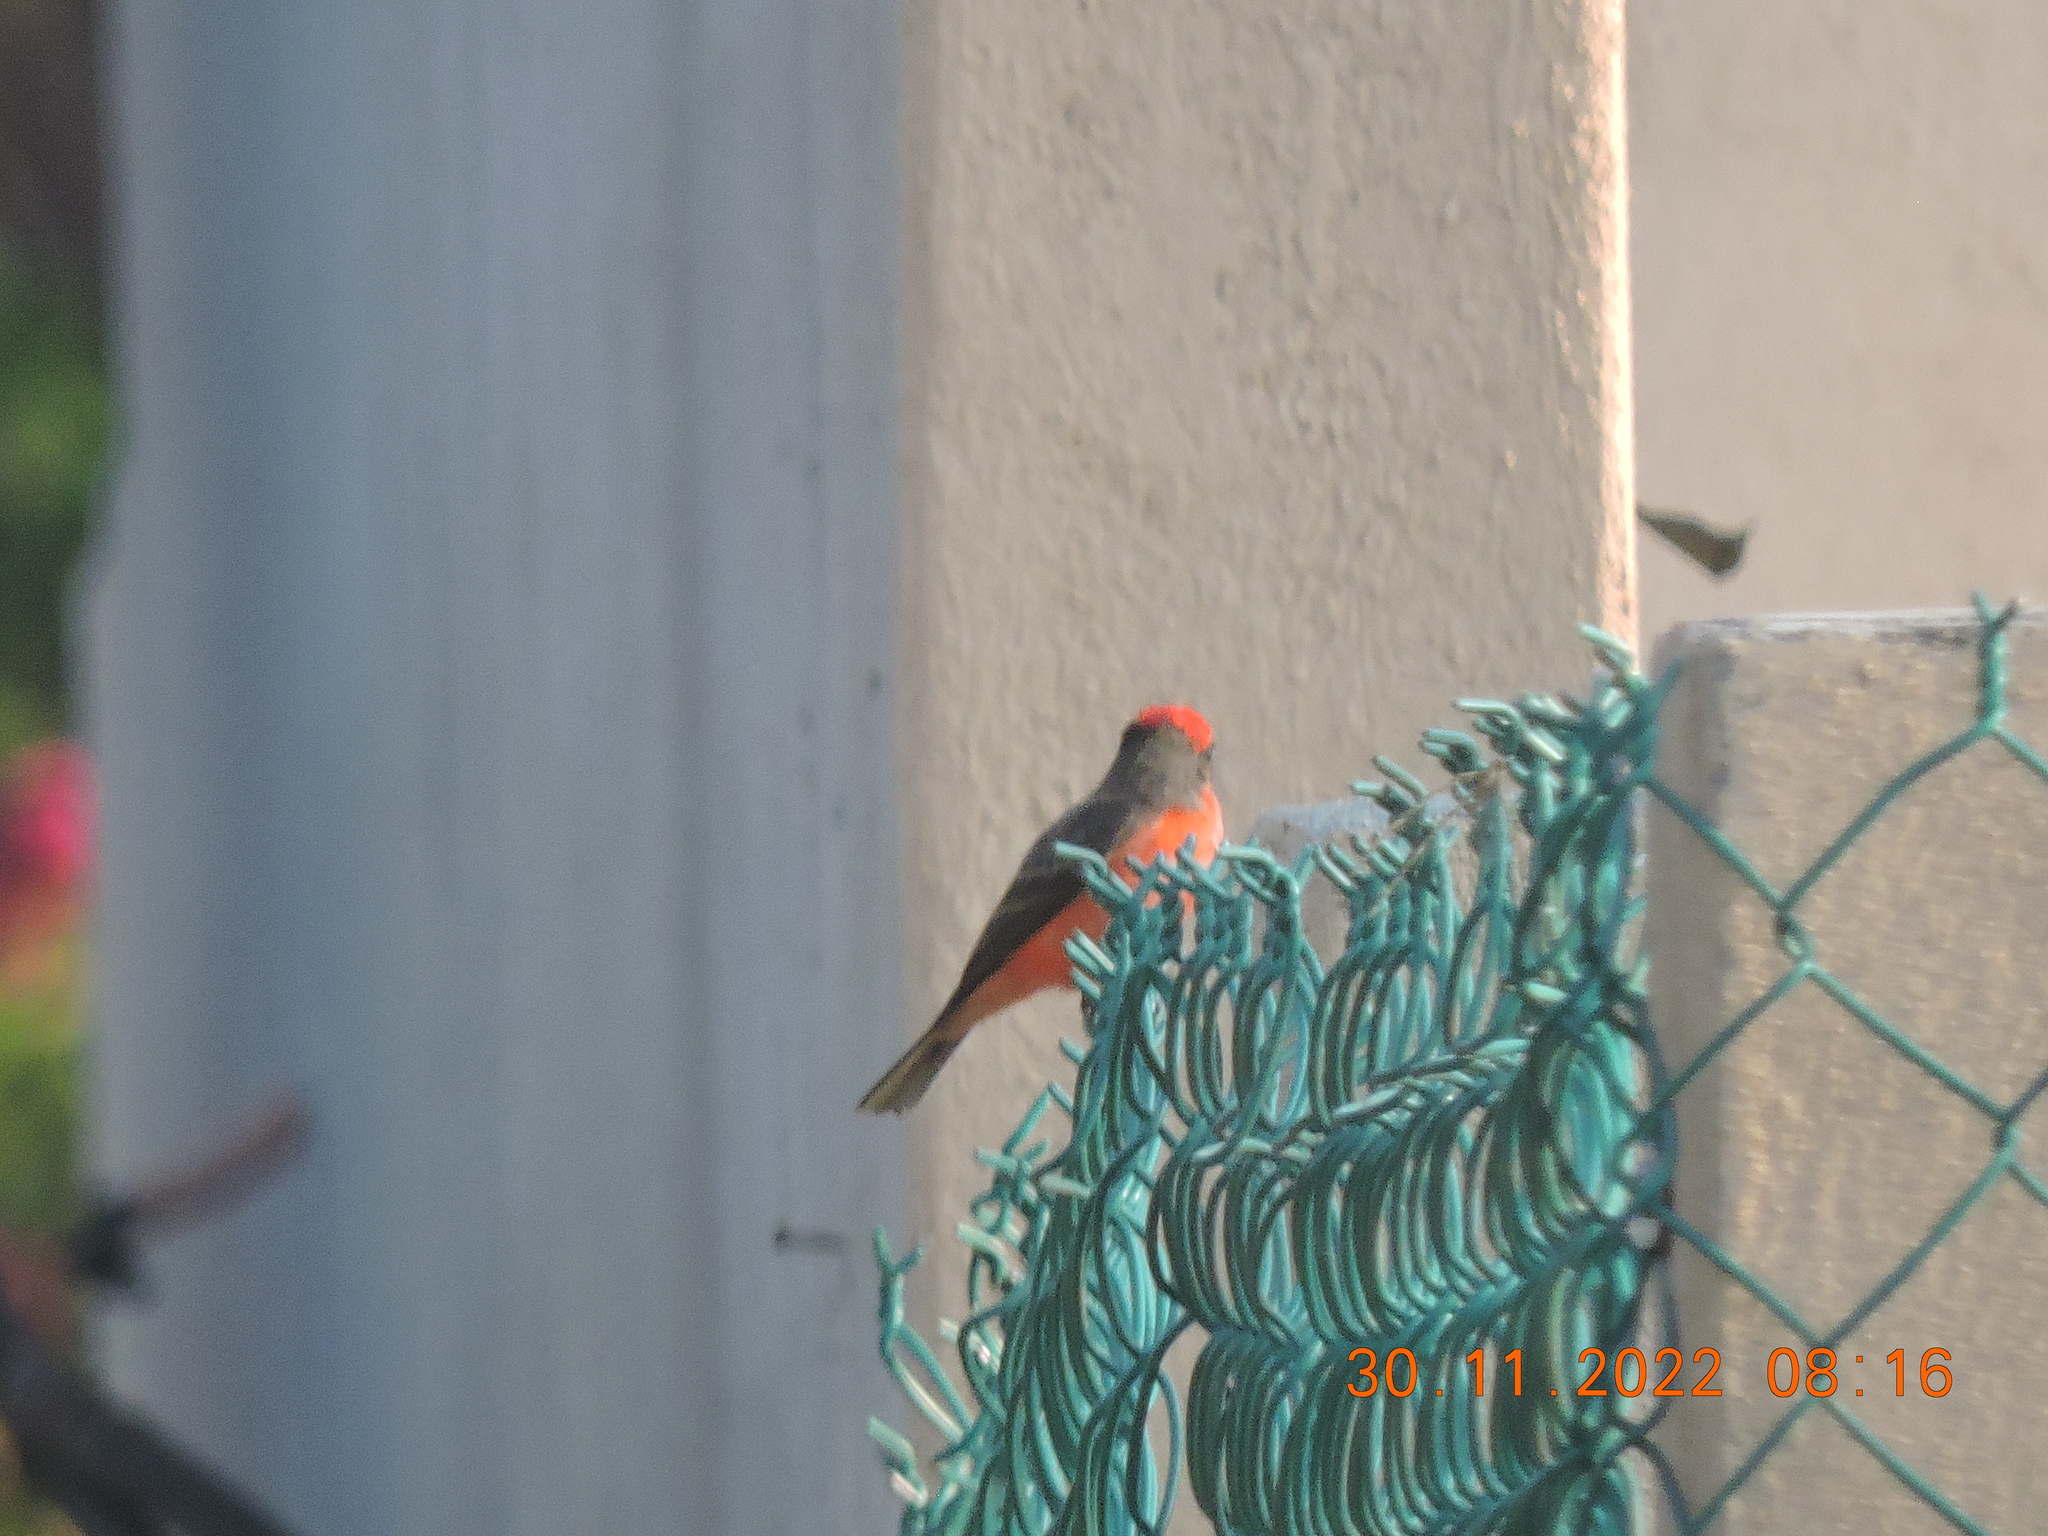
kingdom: Animalia
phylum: Chordata
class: Aves
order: Passeriformes
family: Tyrannidae
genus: Pyrocephalus
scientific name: Pyrocephalus rubinus
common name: Vermilion flycatcher
